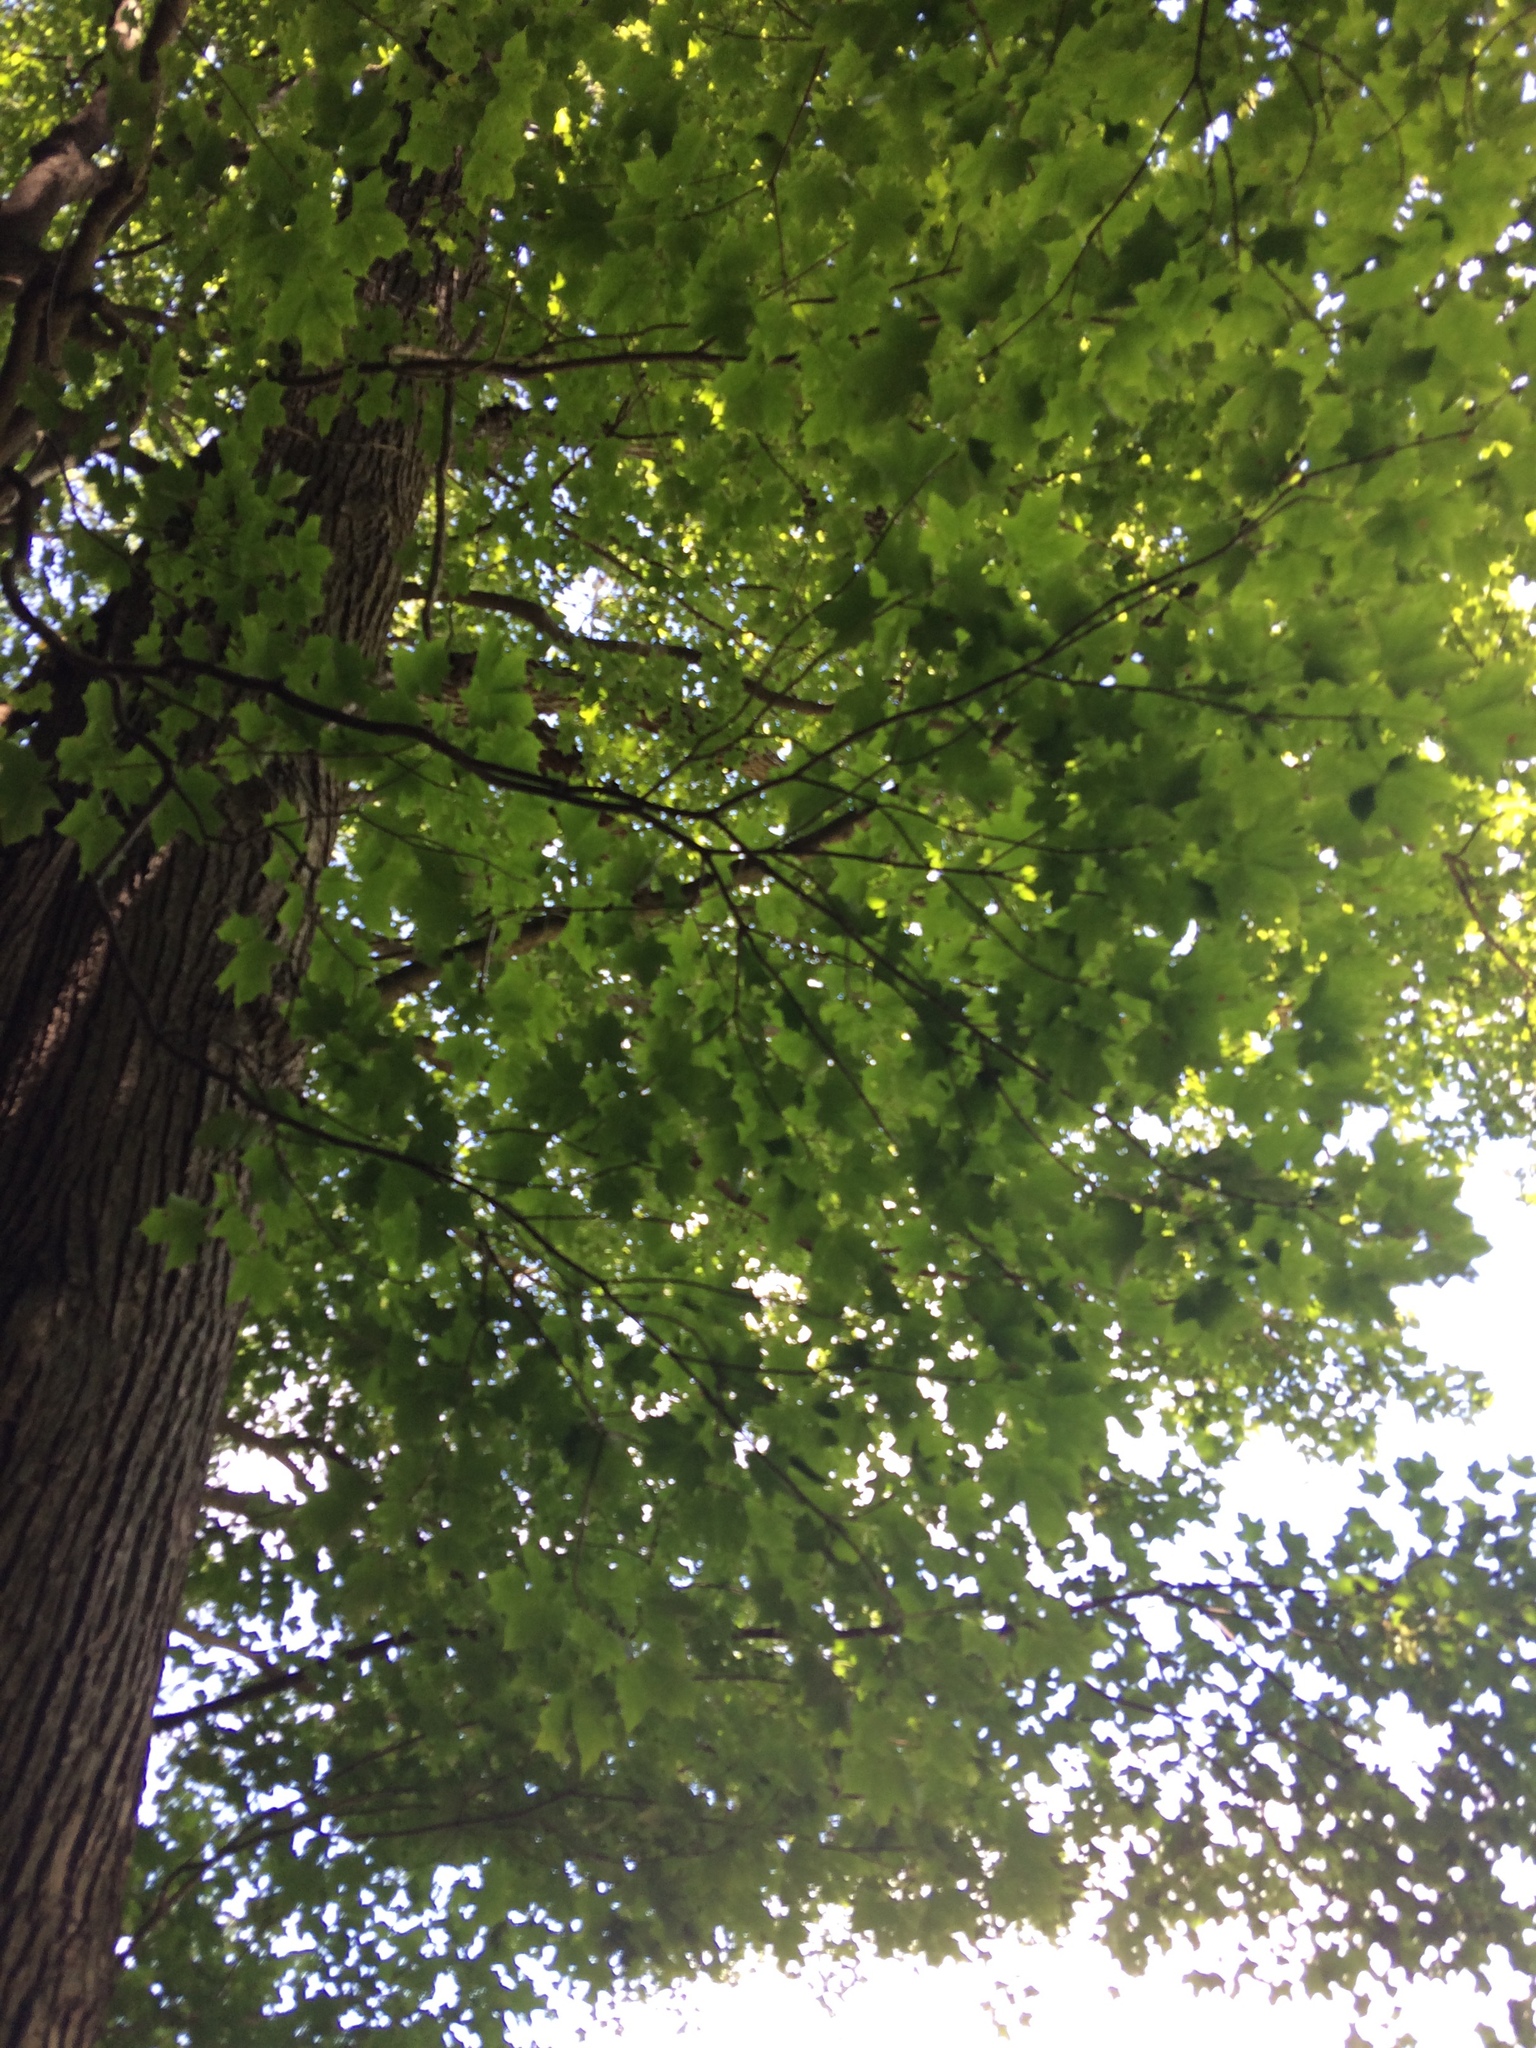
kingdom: Plantae
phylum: Tracheophyta
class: Magnoliopsida
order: Sapindales
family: Sapindaceae
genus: Acer
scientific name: Acer saccharum
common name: Sugar maple
